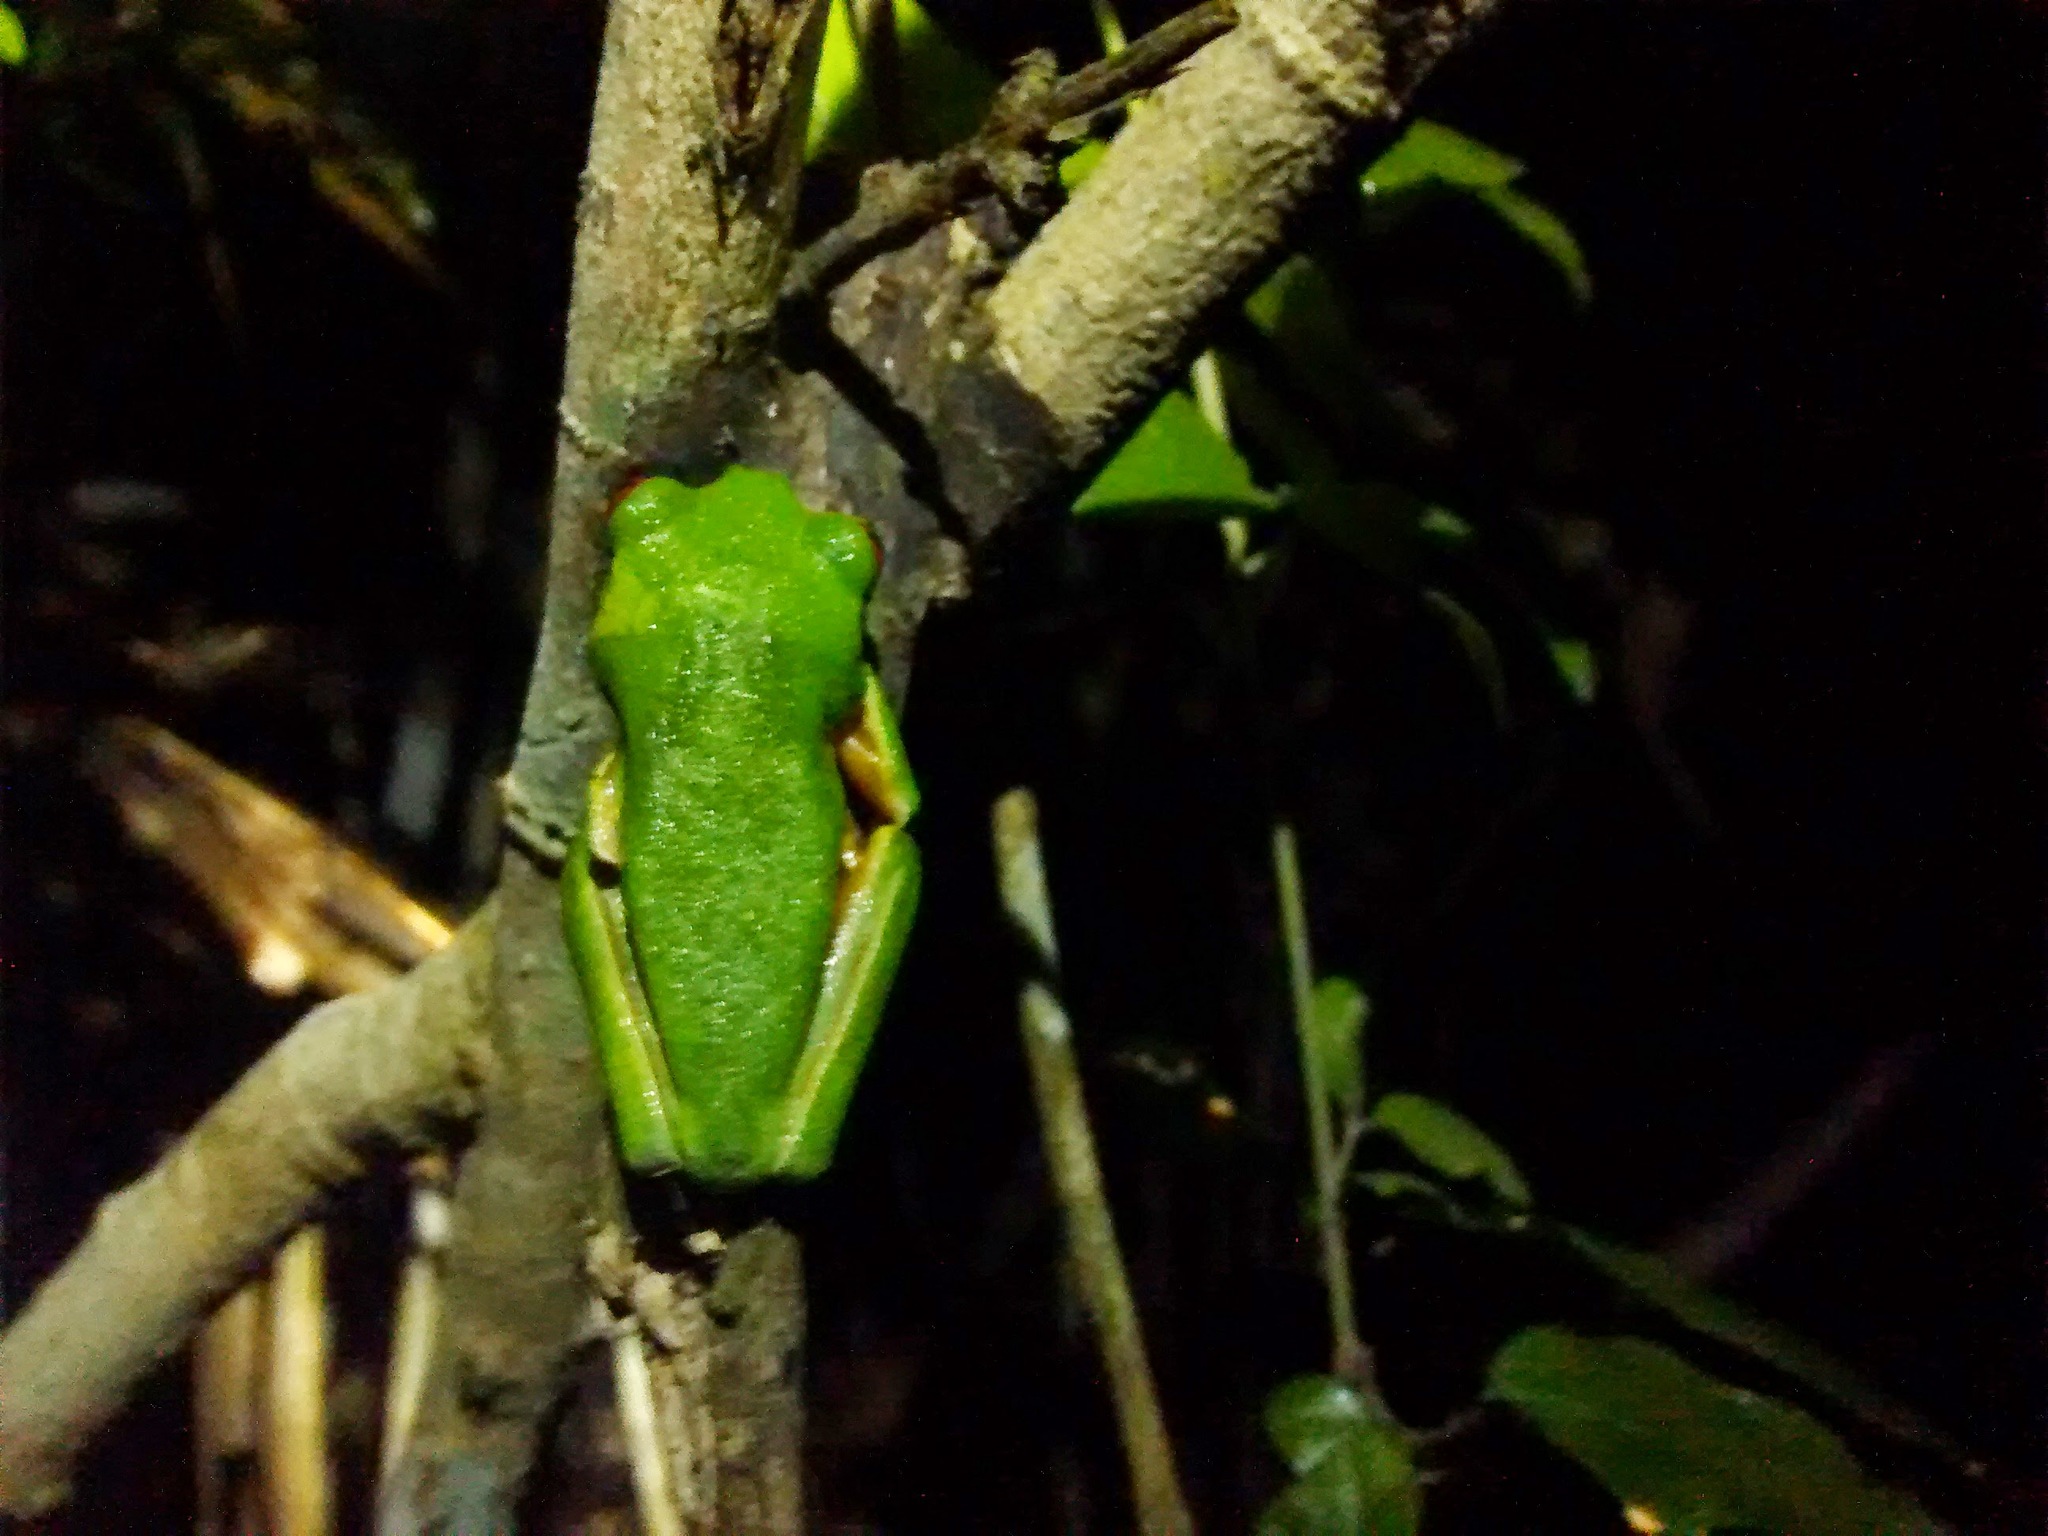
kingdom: Animalia
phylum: Chordata
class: Amphibia
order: Anura
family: Phyllomedusidae
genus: Agalychnis
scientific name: Agalychnis
